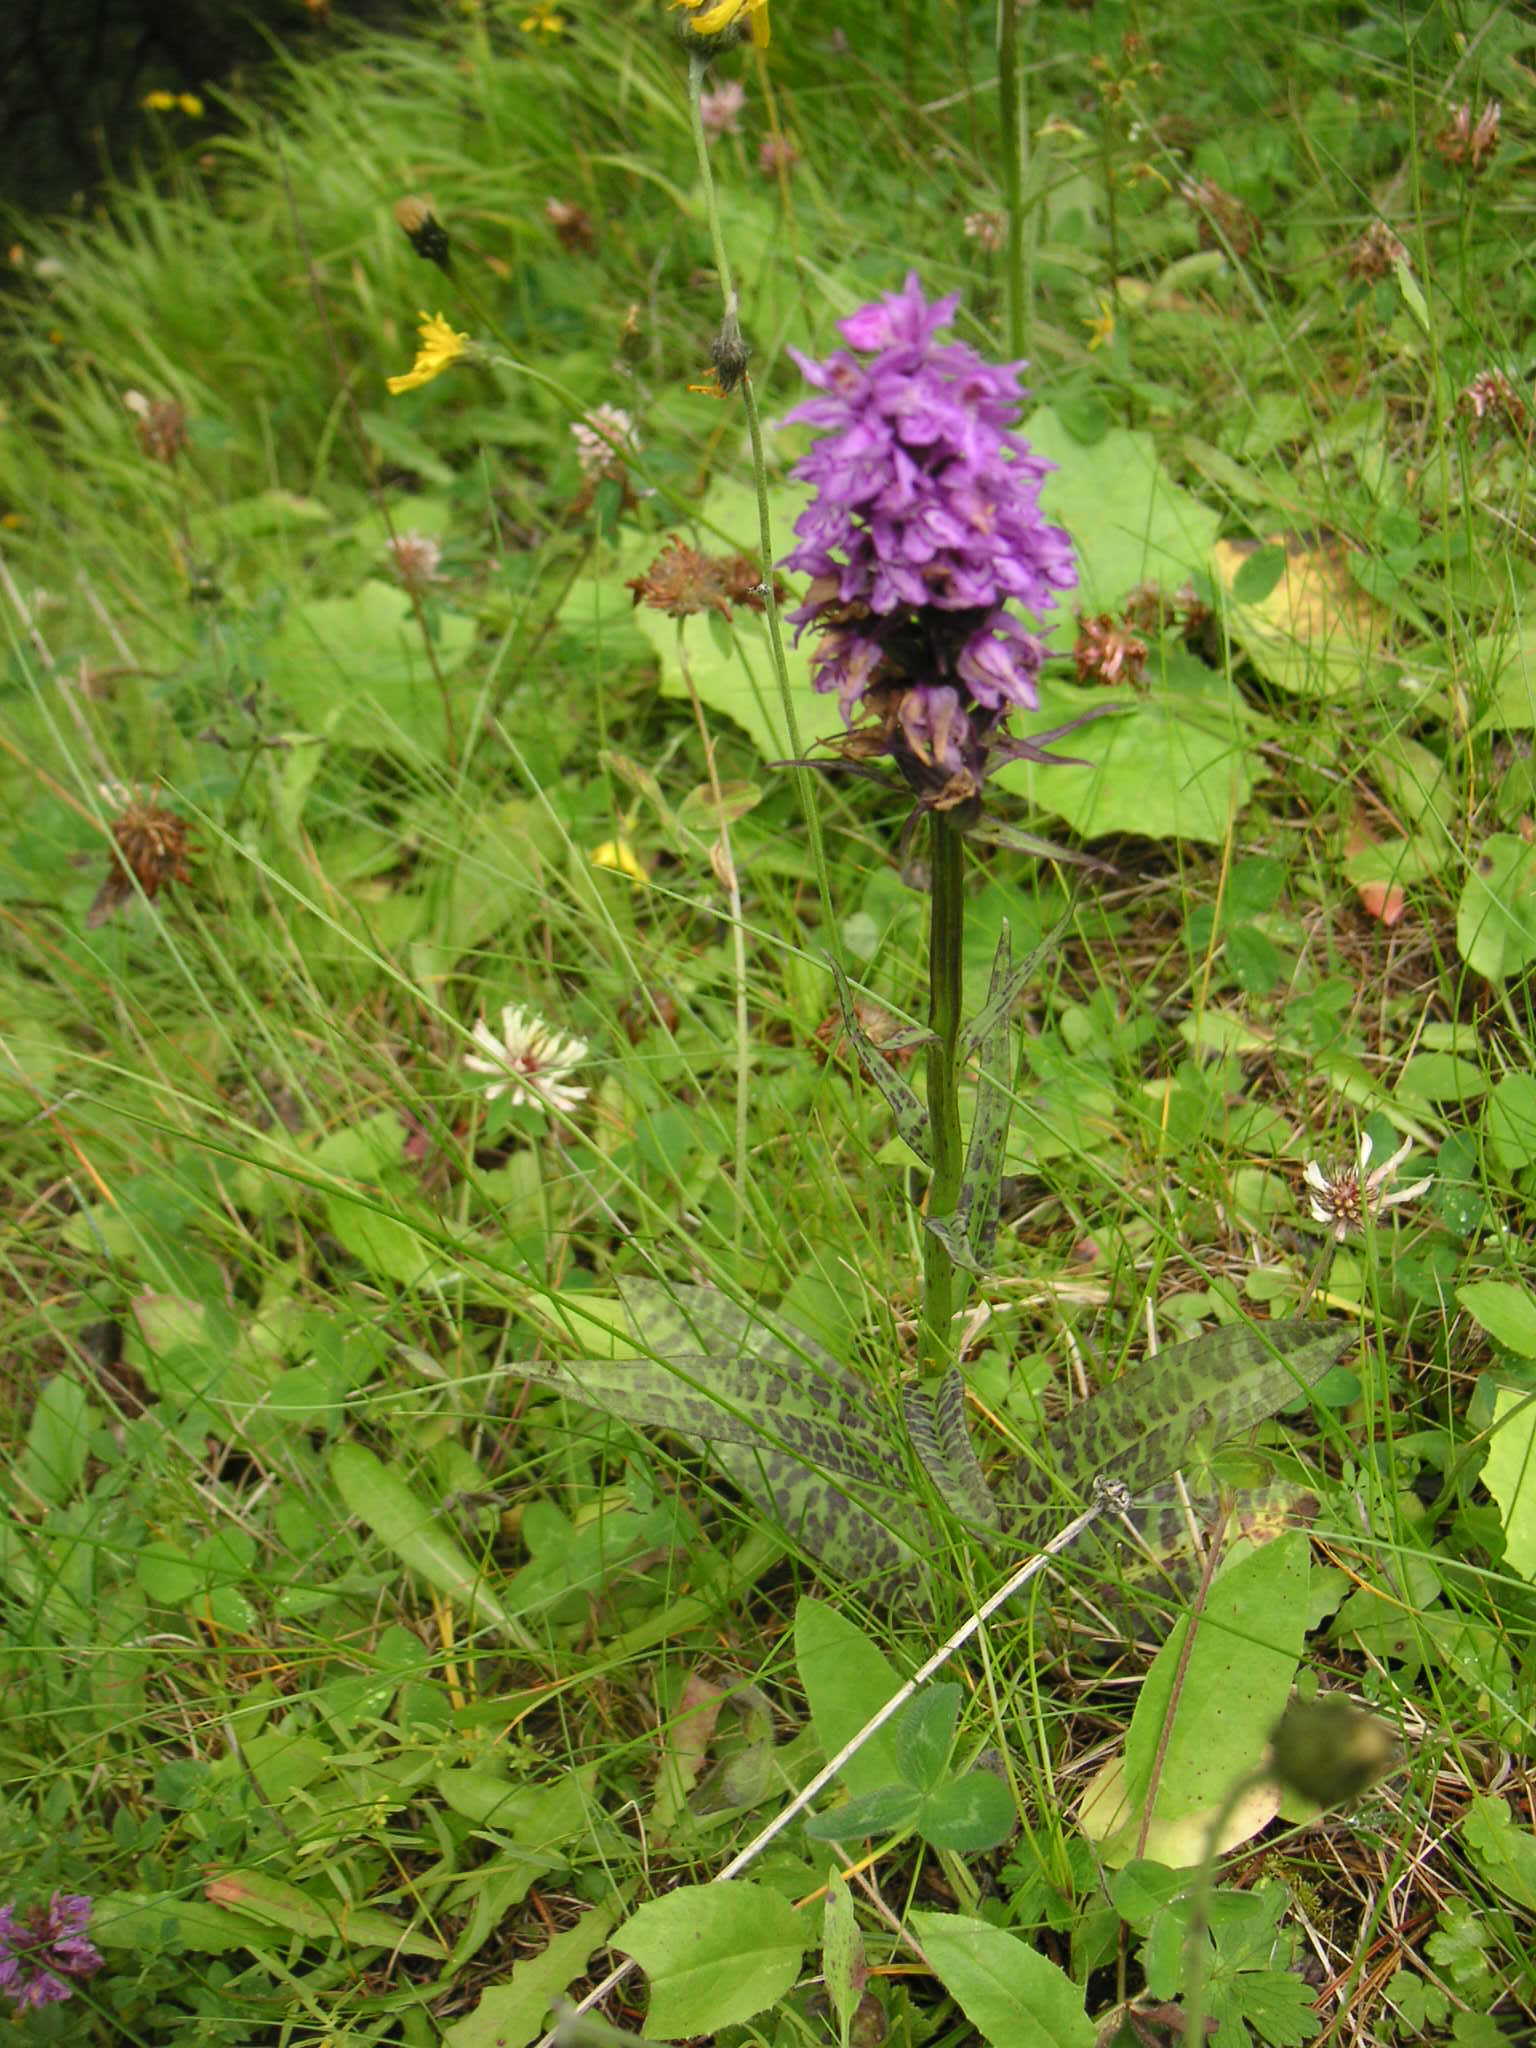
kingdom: Plantae
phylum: Tracheophyta
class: Liliopsida
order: Asparagales
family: Orchidaceae
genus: Dactylorhiza
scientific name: Dactylorhiza maculata
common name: Heath spotted-orchid
